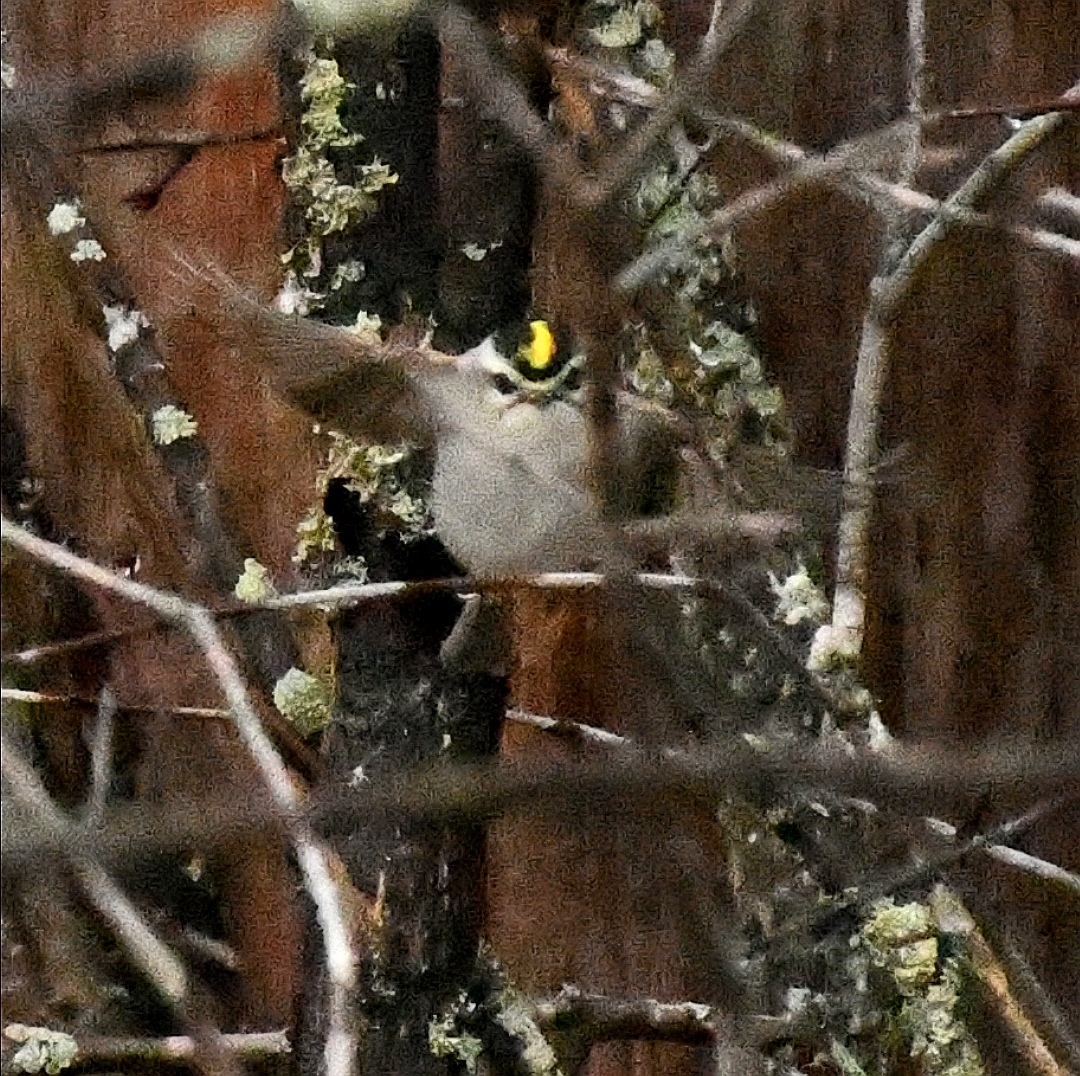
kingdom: Animalia
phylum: Chordata
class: Aves
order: Passeriformes
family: Regulidae
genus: Regulus
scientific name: Regulus satrapa
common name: Golden-crowned kinglet
